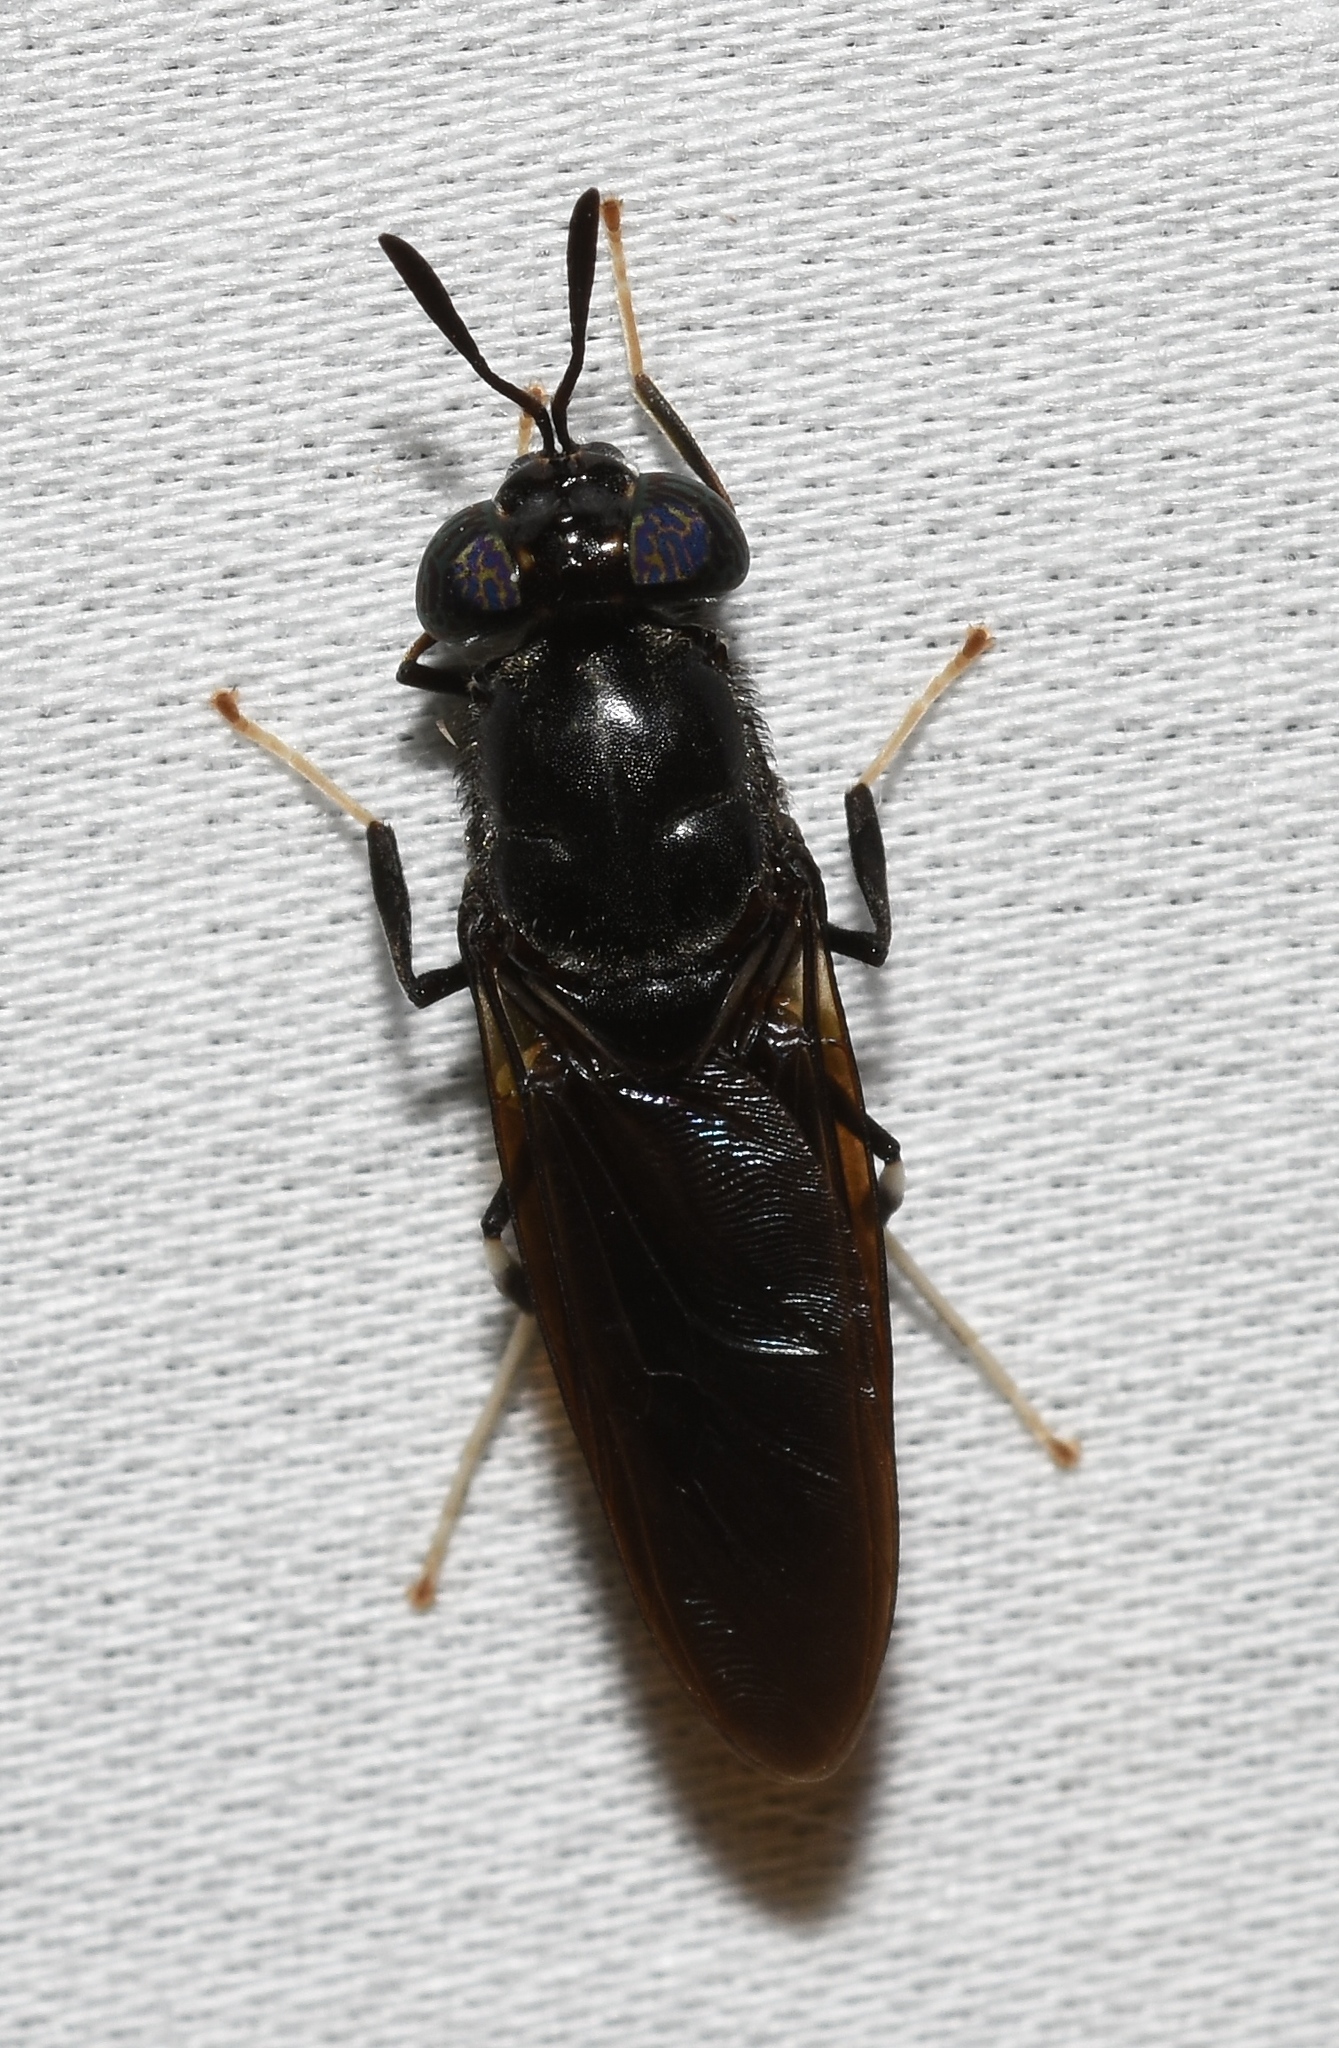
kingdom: Animalia
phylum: Arthropoda
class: Insecta
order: Diptera
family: Stratiomyidae
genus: Hermetia
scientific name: Hermetia illucens
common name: Black soldier fly
